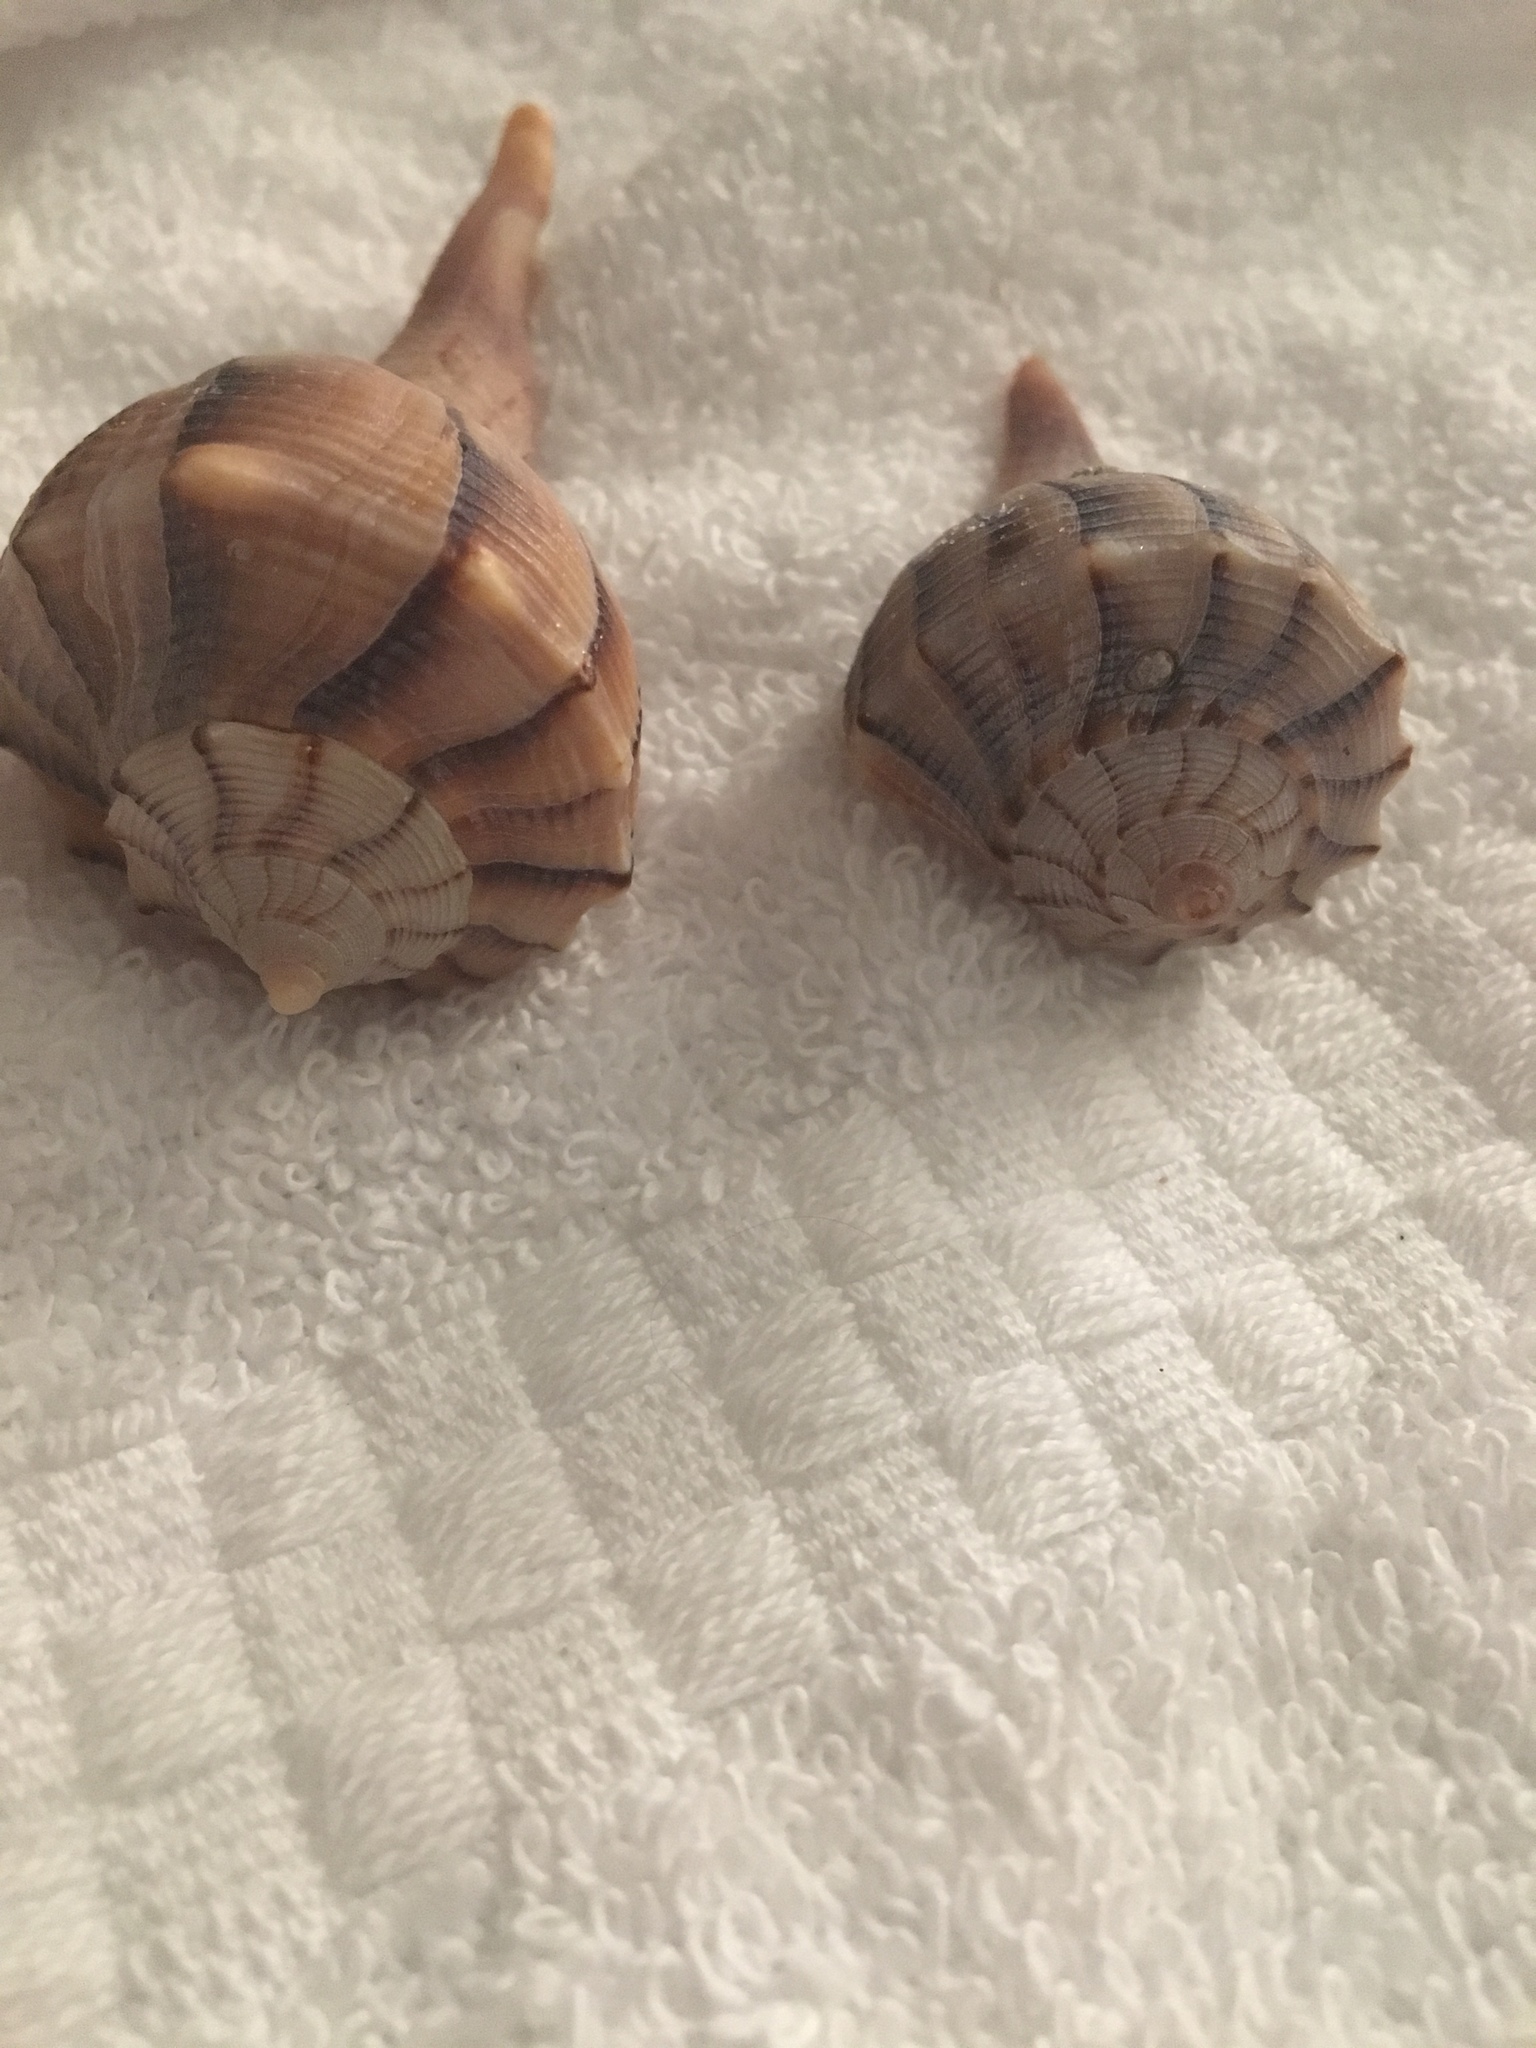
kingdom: Animalia
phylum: Mollusca
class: Gastropoda
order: Neogastropoda
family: Busyconidae
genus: Sinistrofulgur
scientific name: Sinistrofulgur sinistrum
